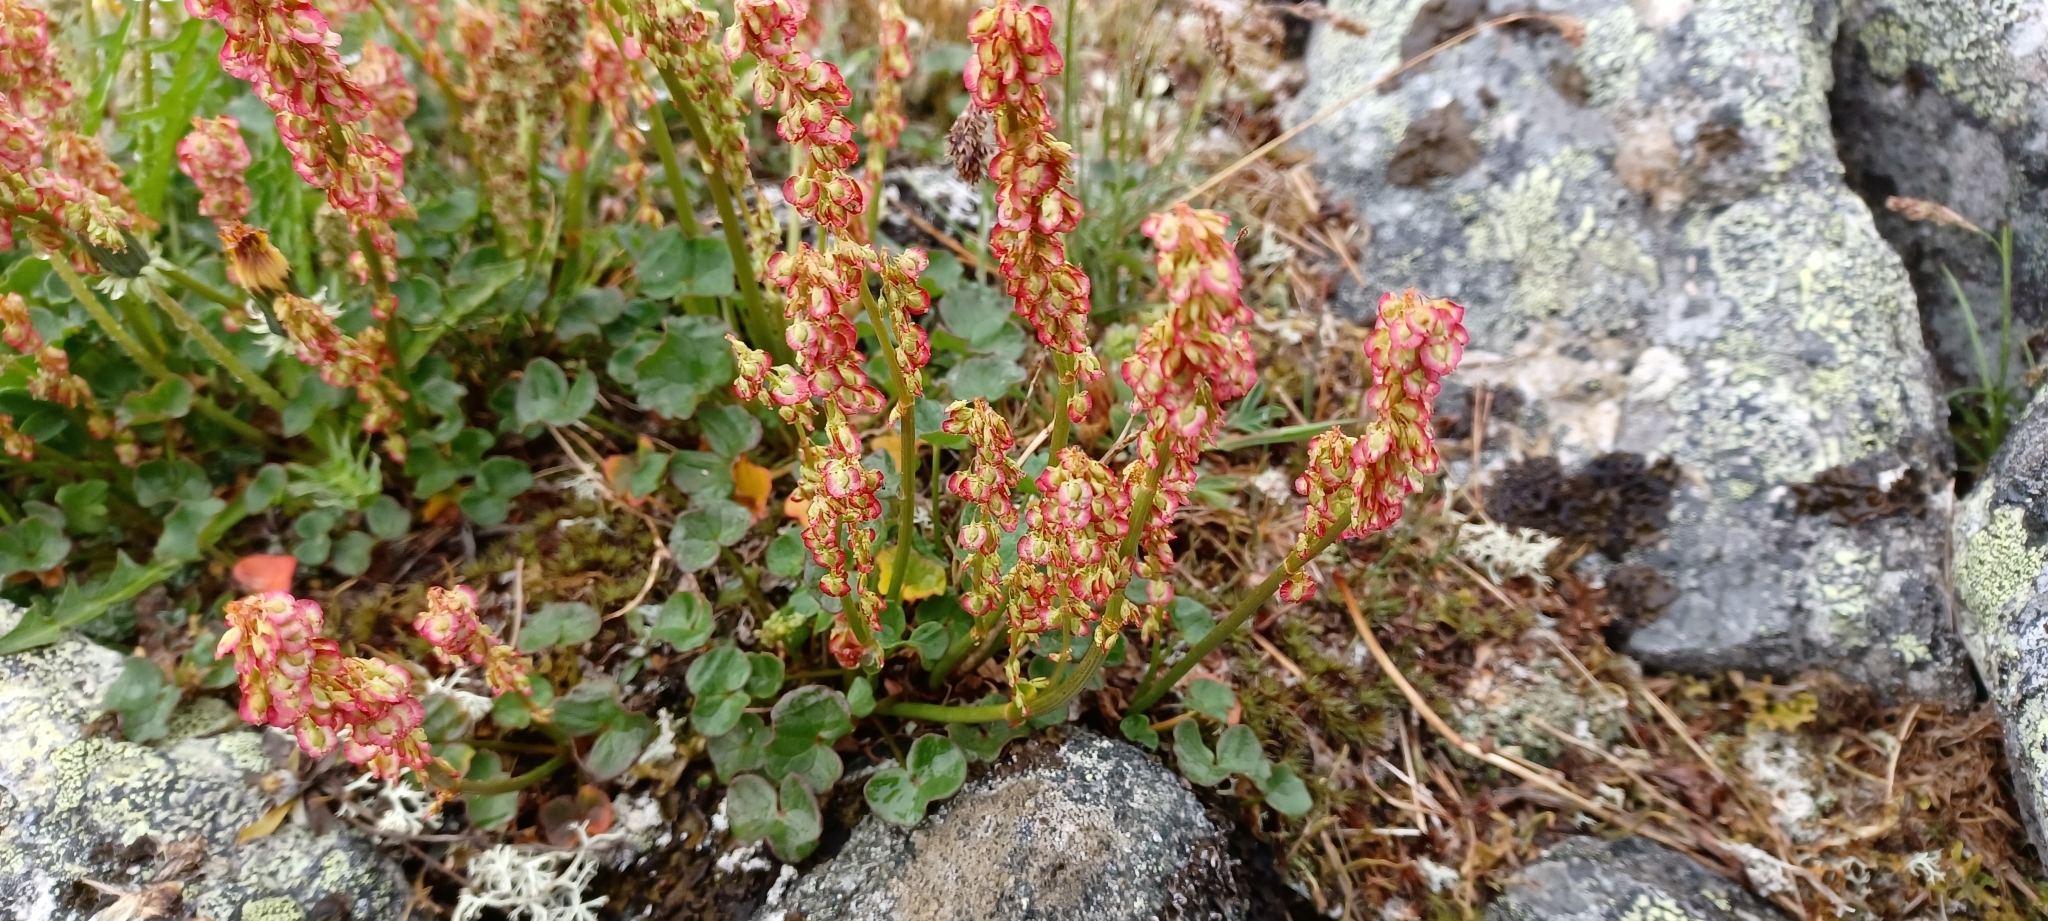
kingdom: Plantae
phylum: Tracheophyta
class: Magnoliopsida
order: Caryophyllales
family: Polygonaceae
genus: Oxyria
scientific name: Oxyria digyna
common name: Alpine mountain-sorrel
